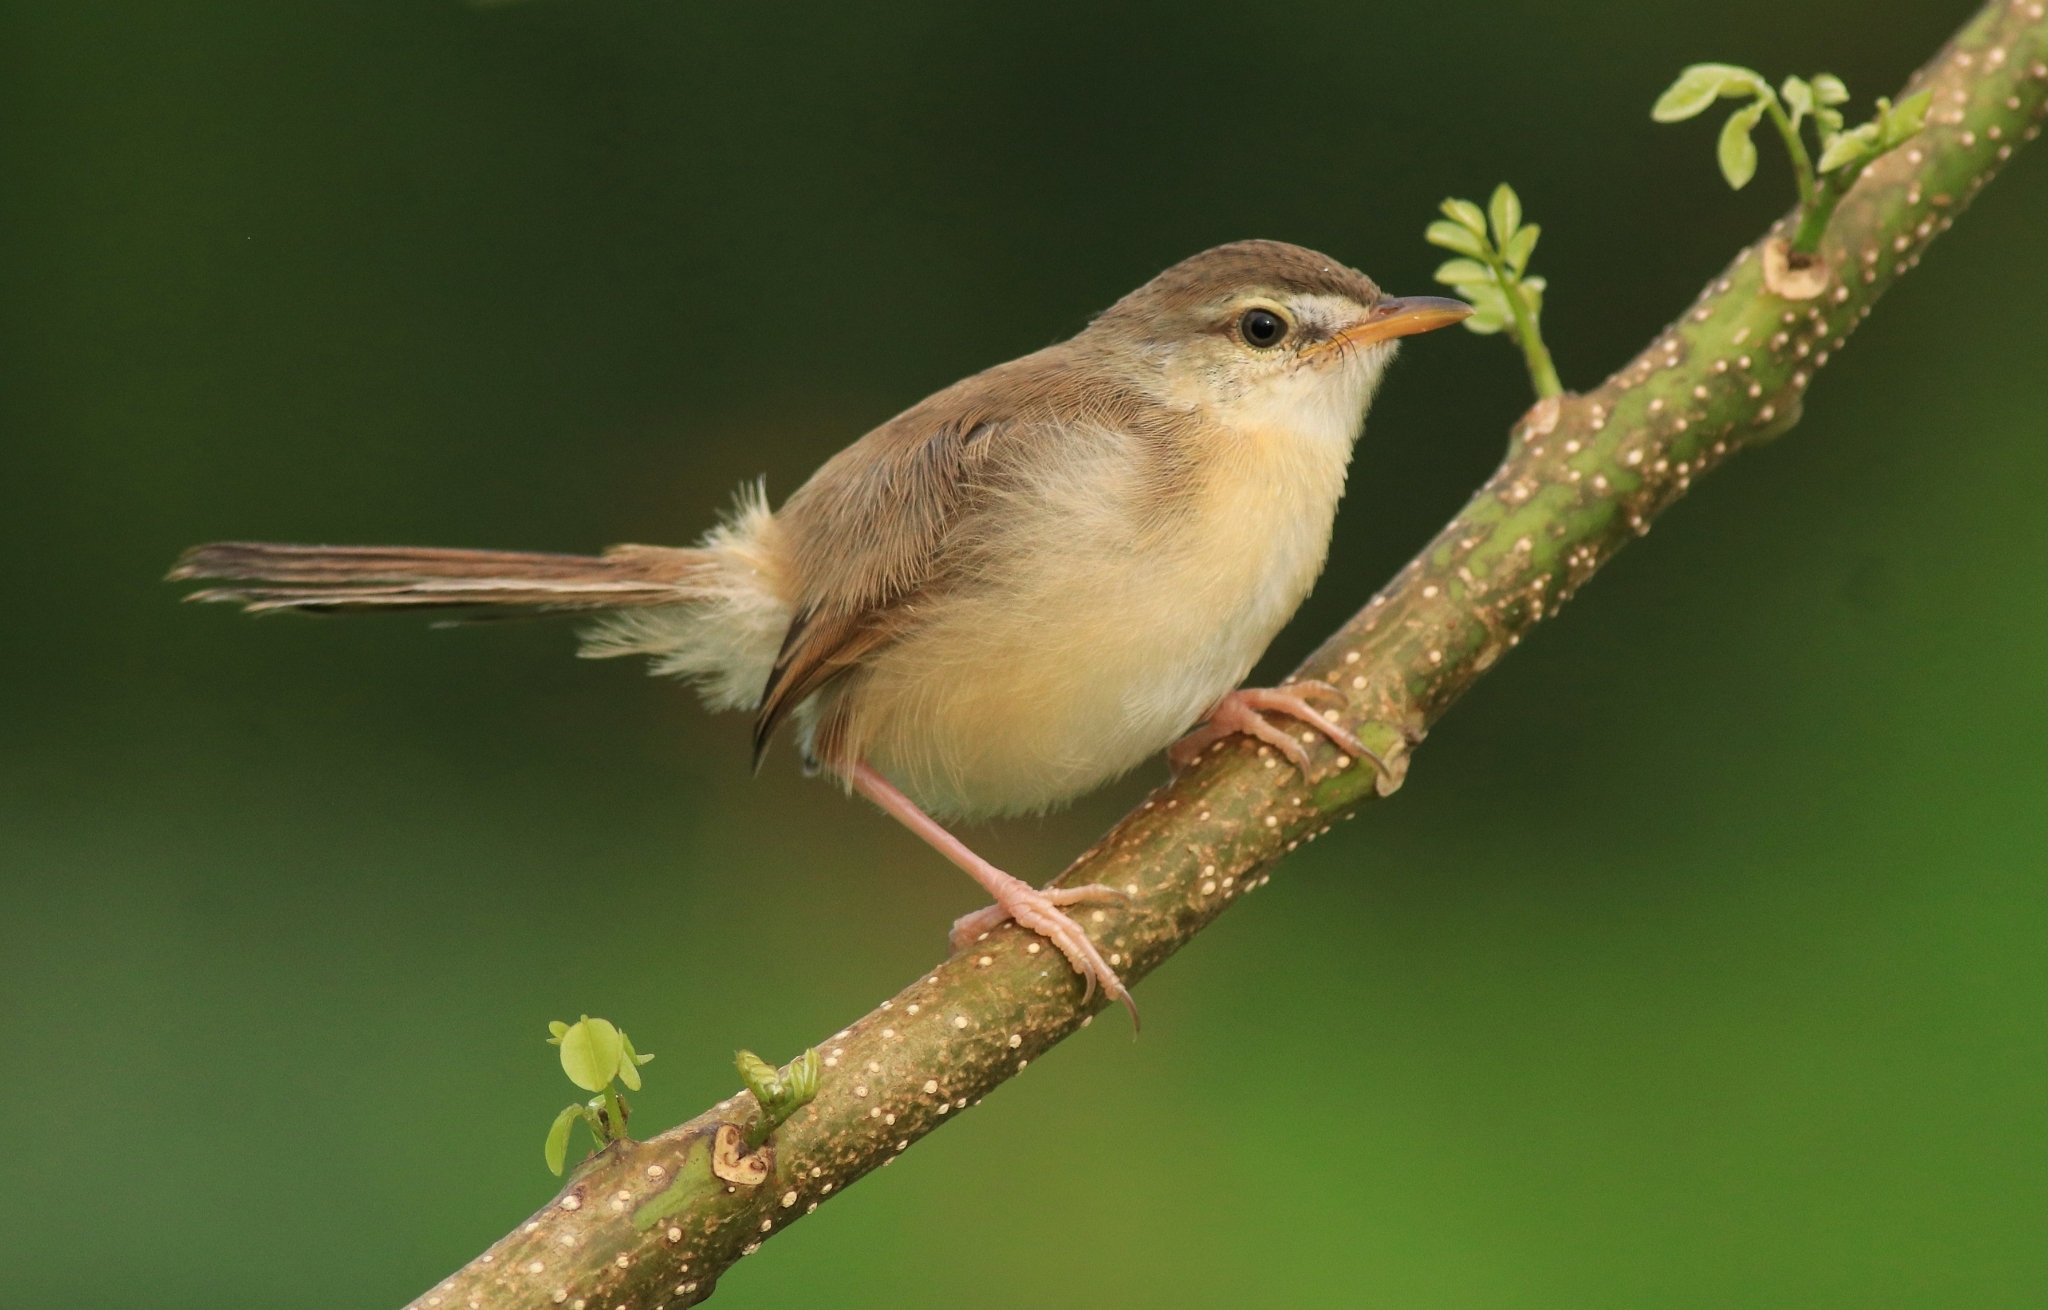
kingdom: Animalia
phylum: Chordata
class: Aves
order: Passeriformes
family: Cisticolidae
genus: Prinia
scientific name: Prinia inornata
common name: Plain prinia
